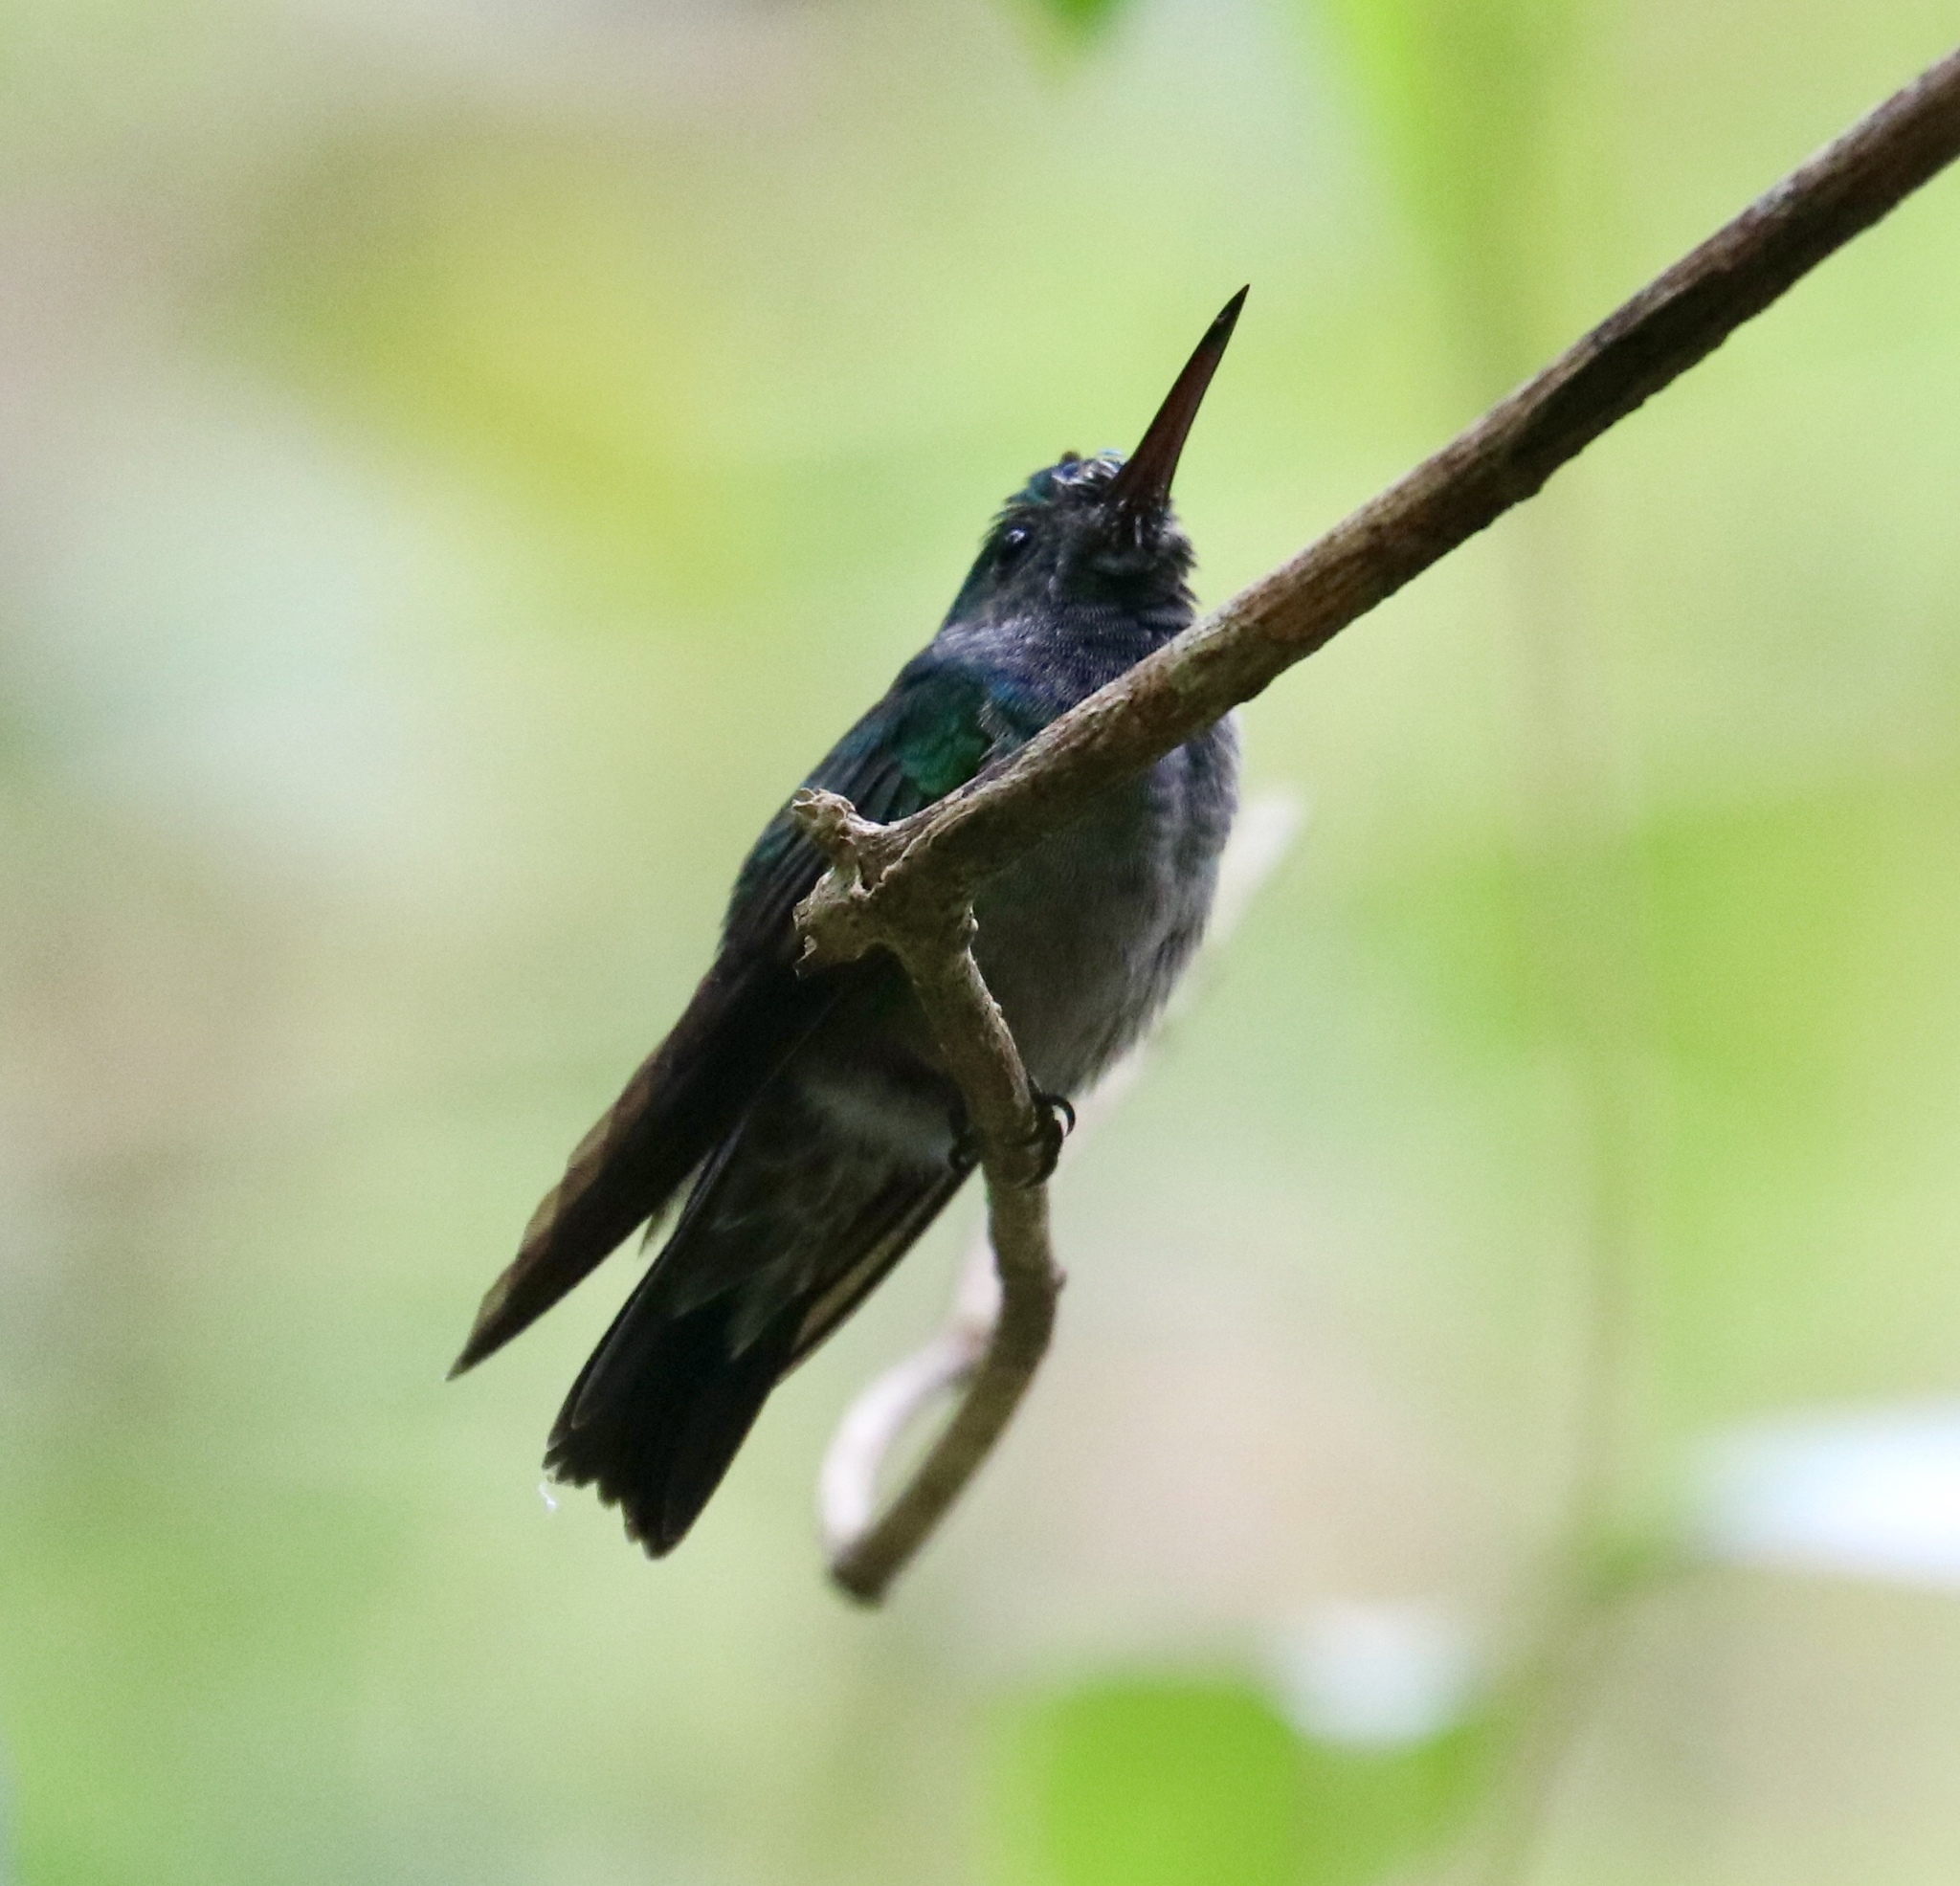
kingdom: Animalia
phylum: Chordata
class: Aves
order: Apodiformes
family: Trochilidae
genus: Polyerata
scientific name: Polyerata amabilis
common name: Blue-chested hummingbird
